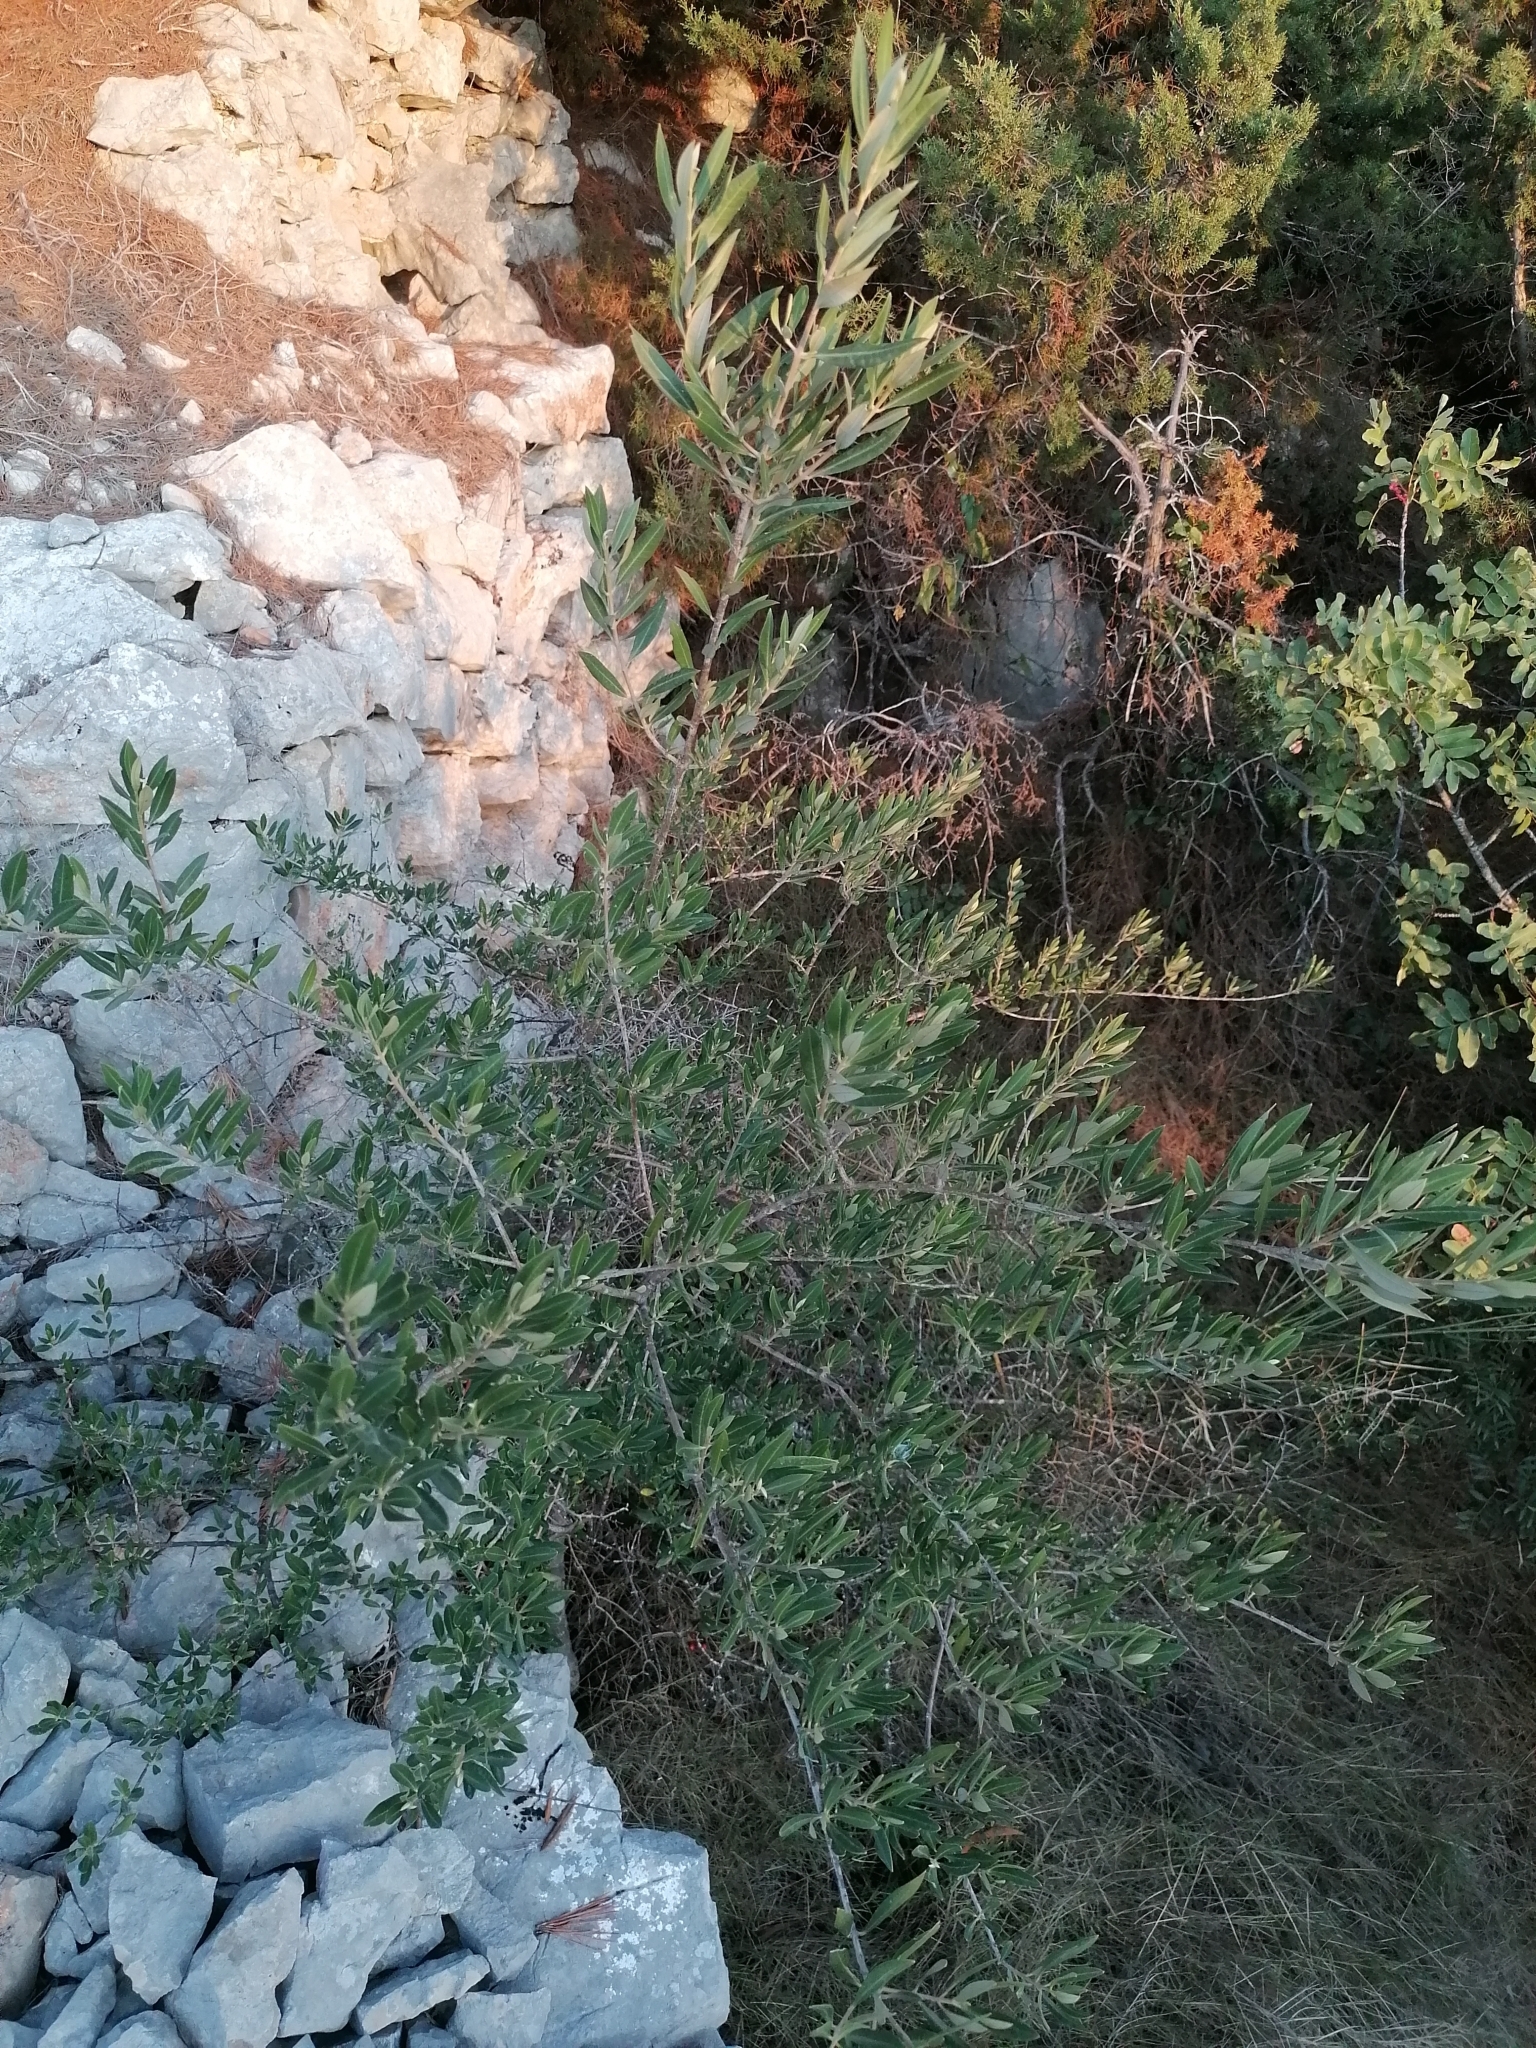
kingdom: Plantae
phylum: Tracheophyta
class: Magnoliopsida
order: Lamiales
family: Oleaceae
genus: Olea
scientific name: Olea europaea
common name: Olive
